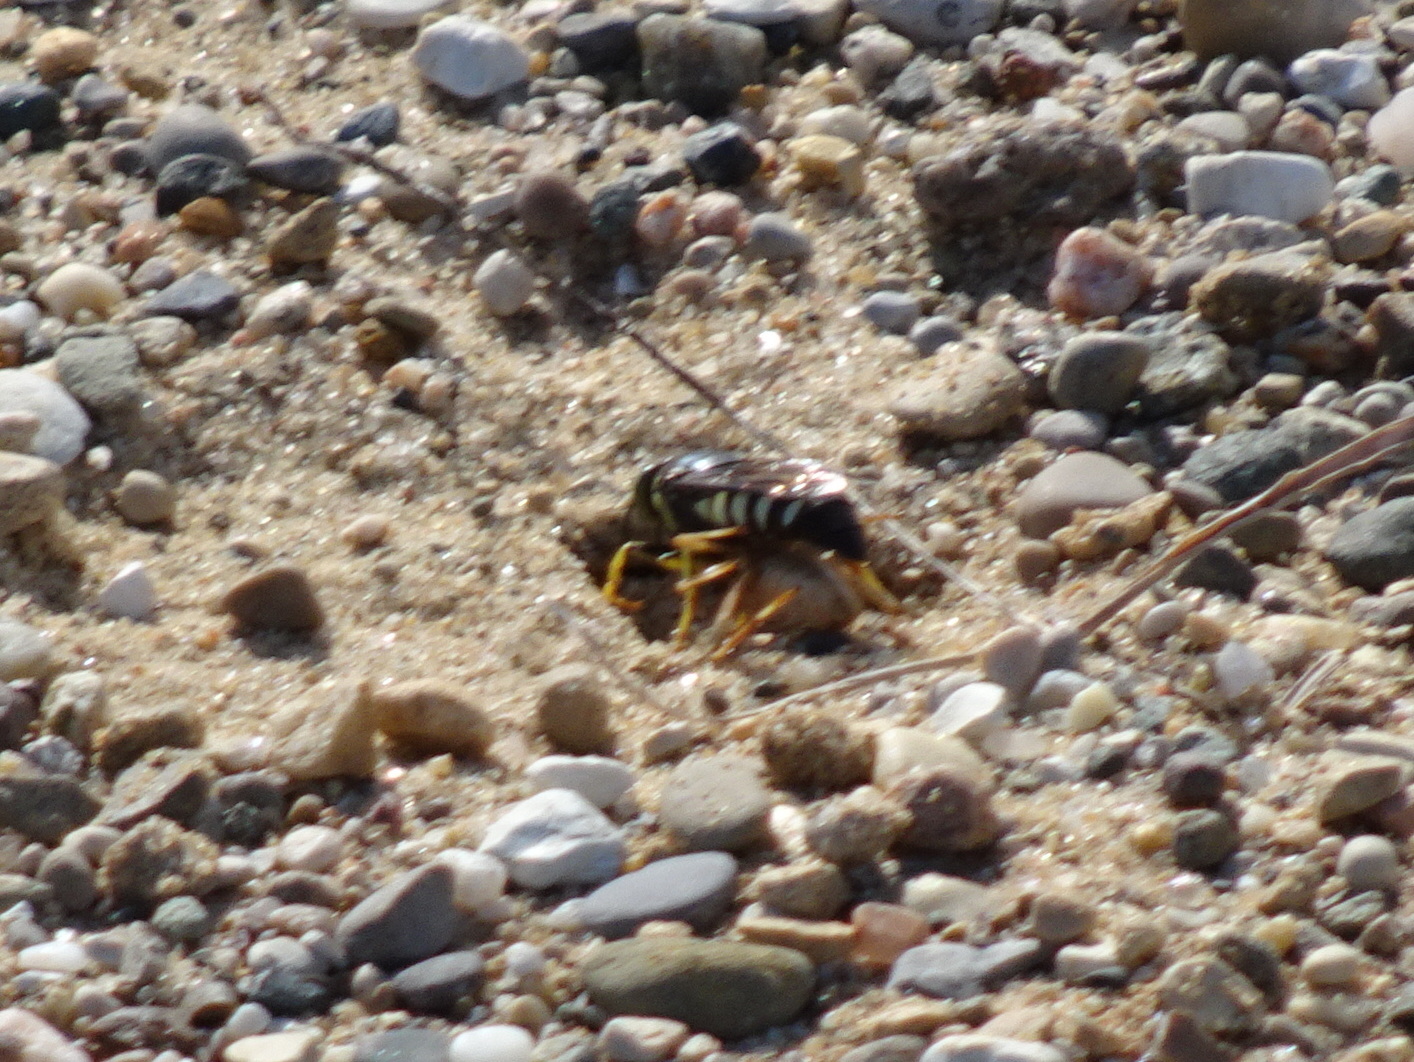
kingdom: Animalia
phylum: Arthropoda
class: Insecta
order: Hymenoptera
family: Crabronidae
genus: Bicyrtes
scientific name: Bicyrtes quadrifasciatus
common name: Four-banded stink bug hunter wasp
